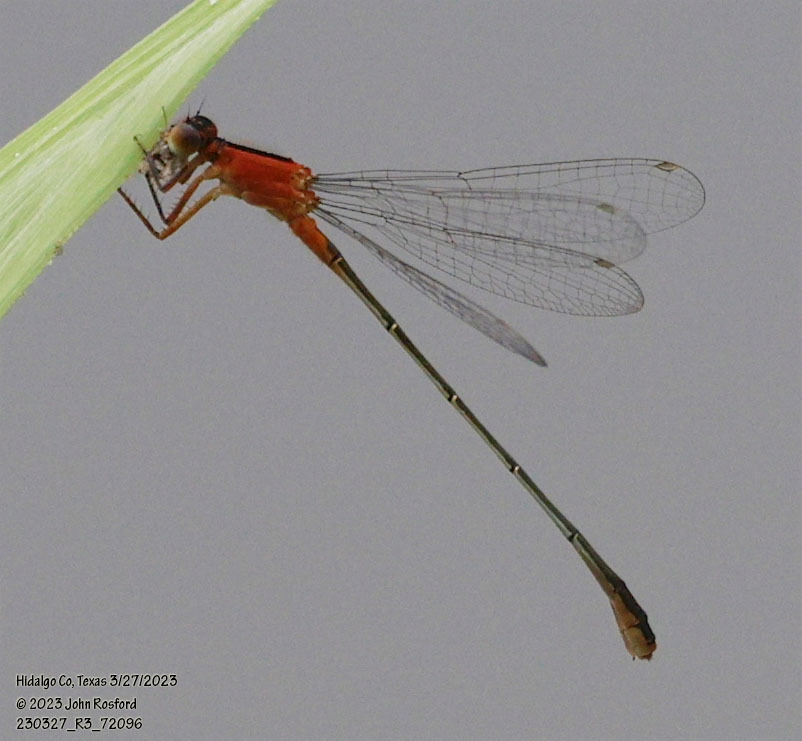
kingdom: Animalia
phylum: Arthropoda
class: Insecta
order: Odonata
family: Coenagrionidae
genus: Ischnura
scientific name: Ischnura ramburii
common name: Rambur's forktail
